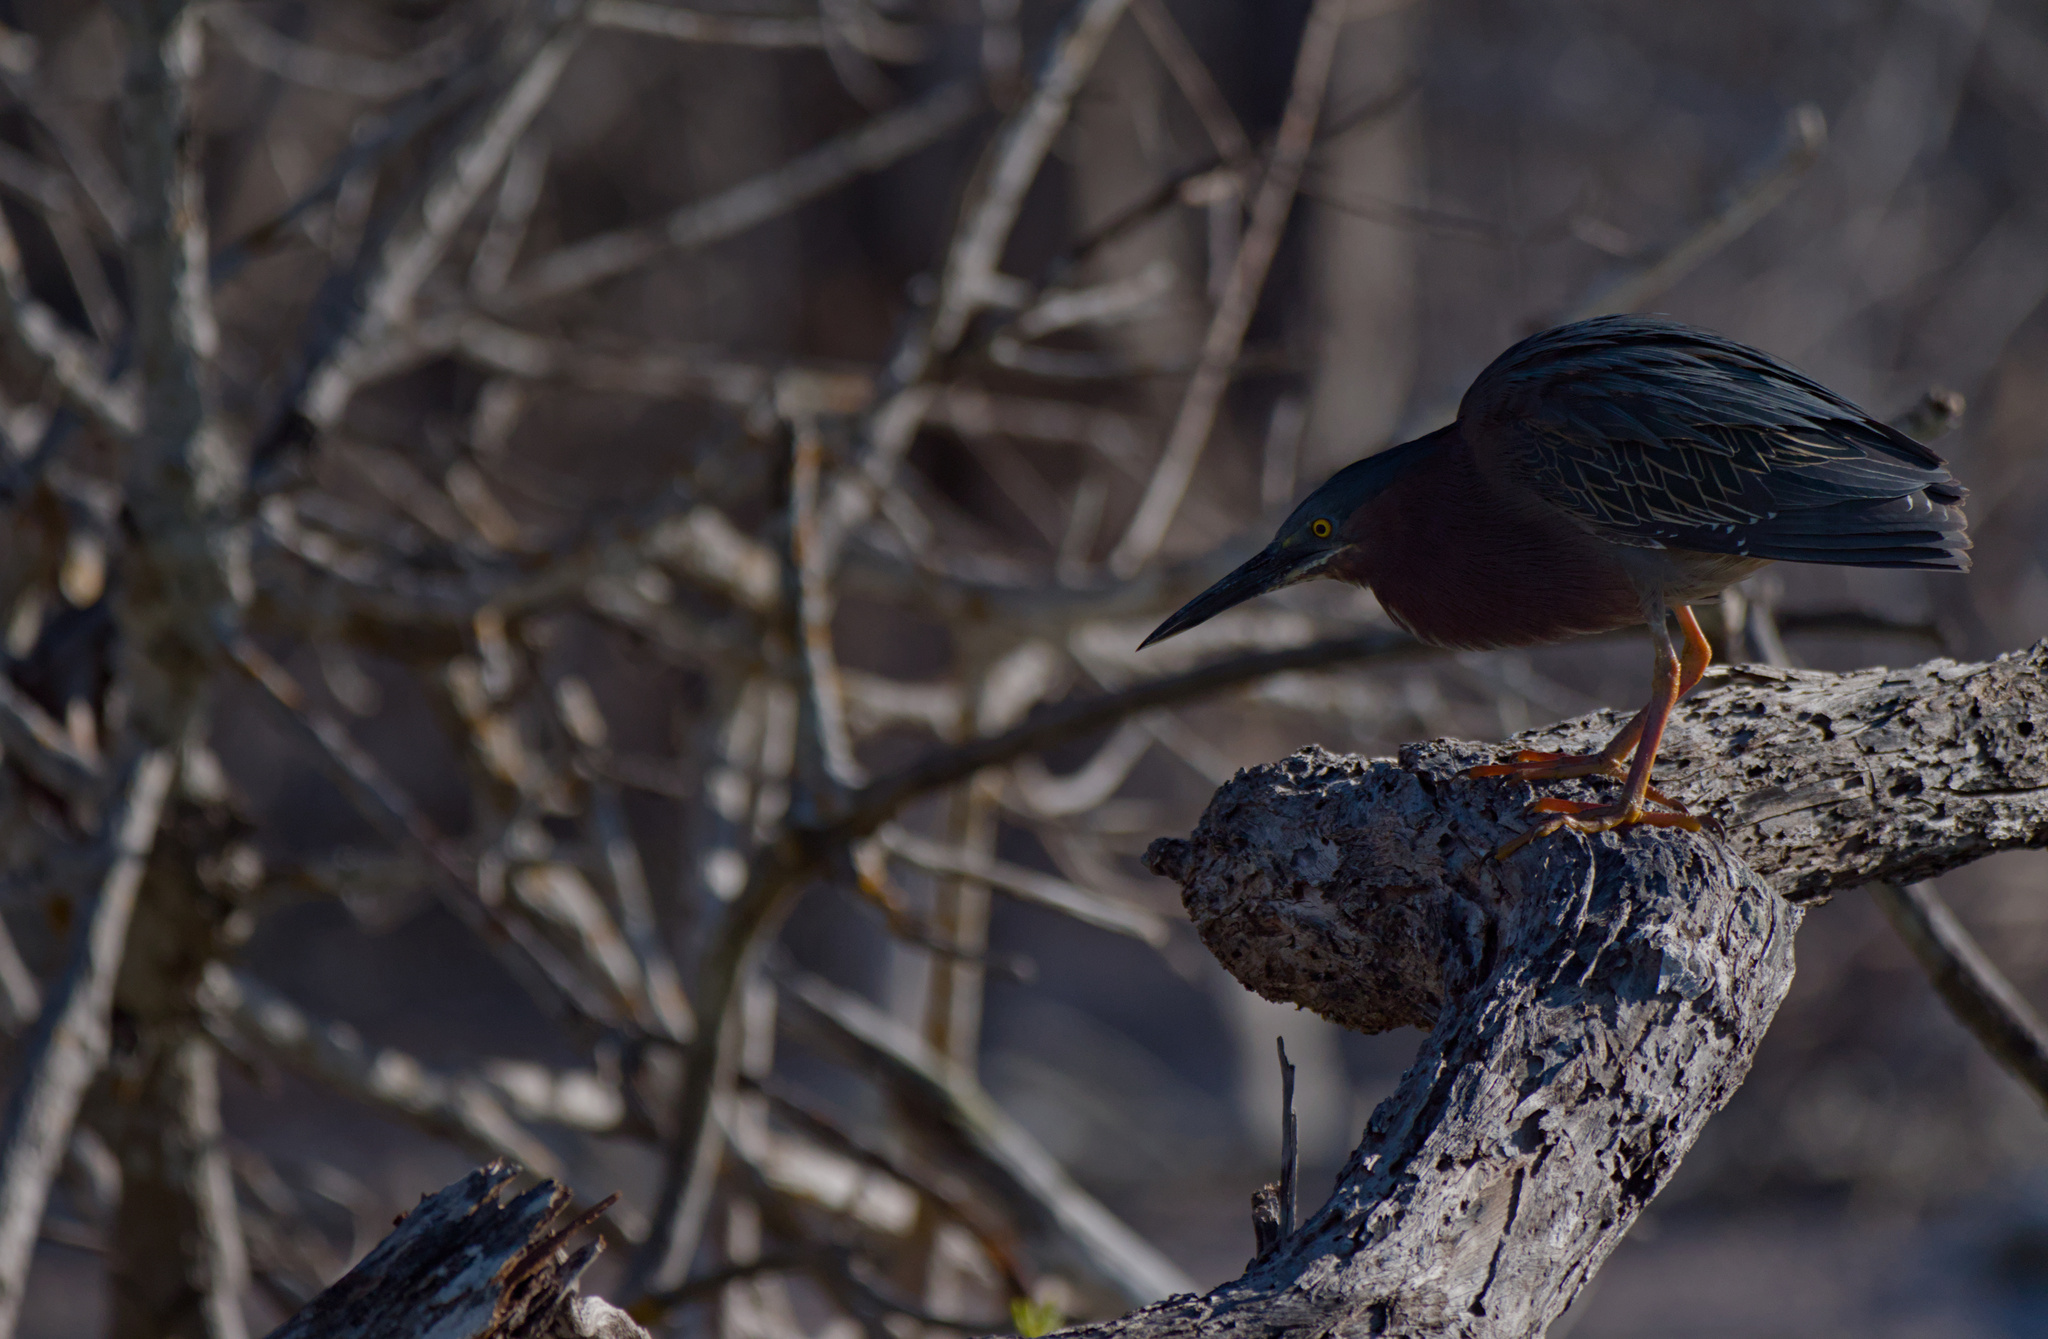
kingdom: Animalia
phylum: Chordata
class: Aves
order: Pelecaniformes
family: Ardeidae
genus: Butorides
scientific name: Butorides virescens
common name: Green heron
